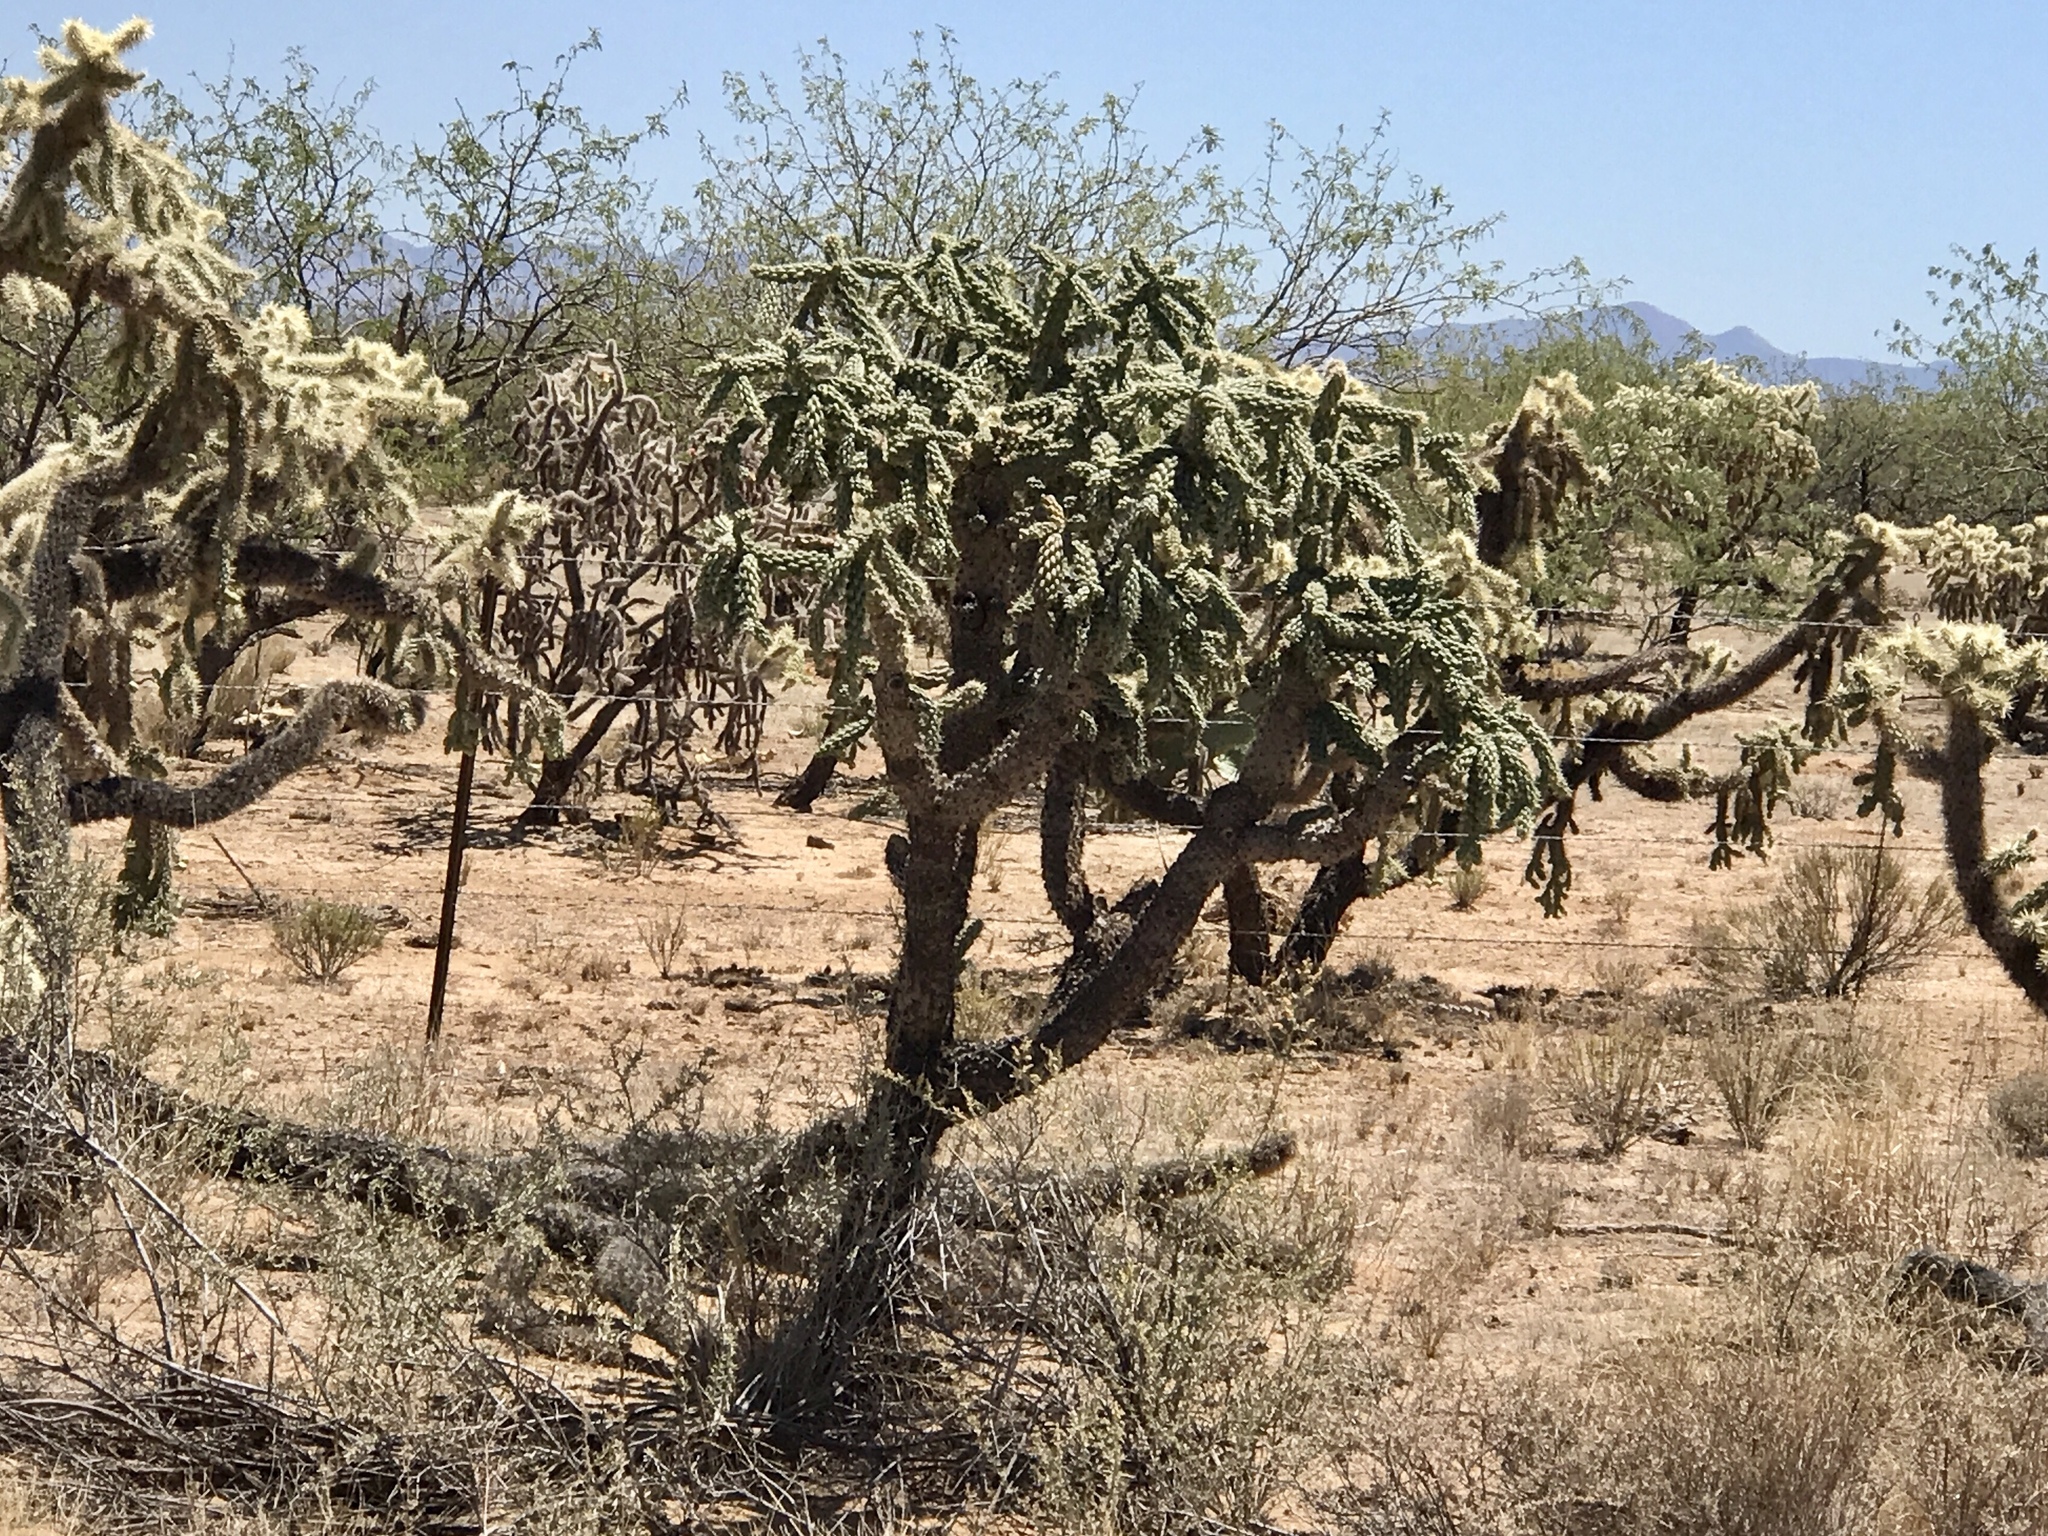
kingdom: Plantae
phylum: Tracheophyta
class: Magnoliopsida
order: Caryophyllales
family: Cactaceae
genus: Cylindropuntia
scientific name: Cylindropuntia fulgida
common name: Jumping cholla
